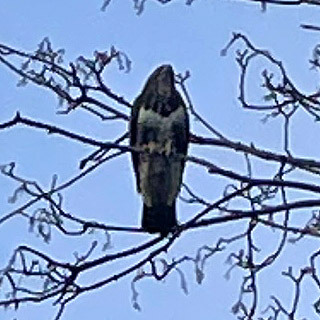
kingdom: Animalia
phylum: Chordata
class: Aves
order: Accipitriformes
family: Accipitridae
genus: Buteo
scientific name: Buteo buteo
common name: Common buzzard
